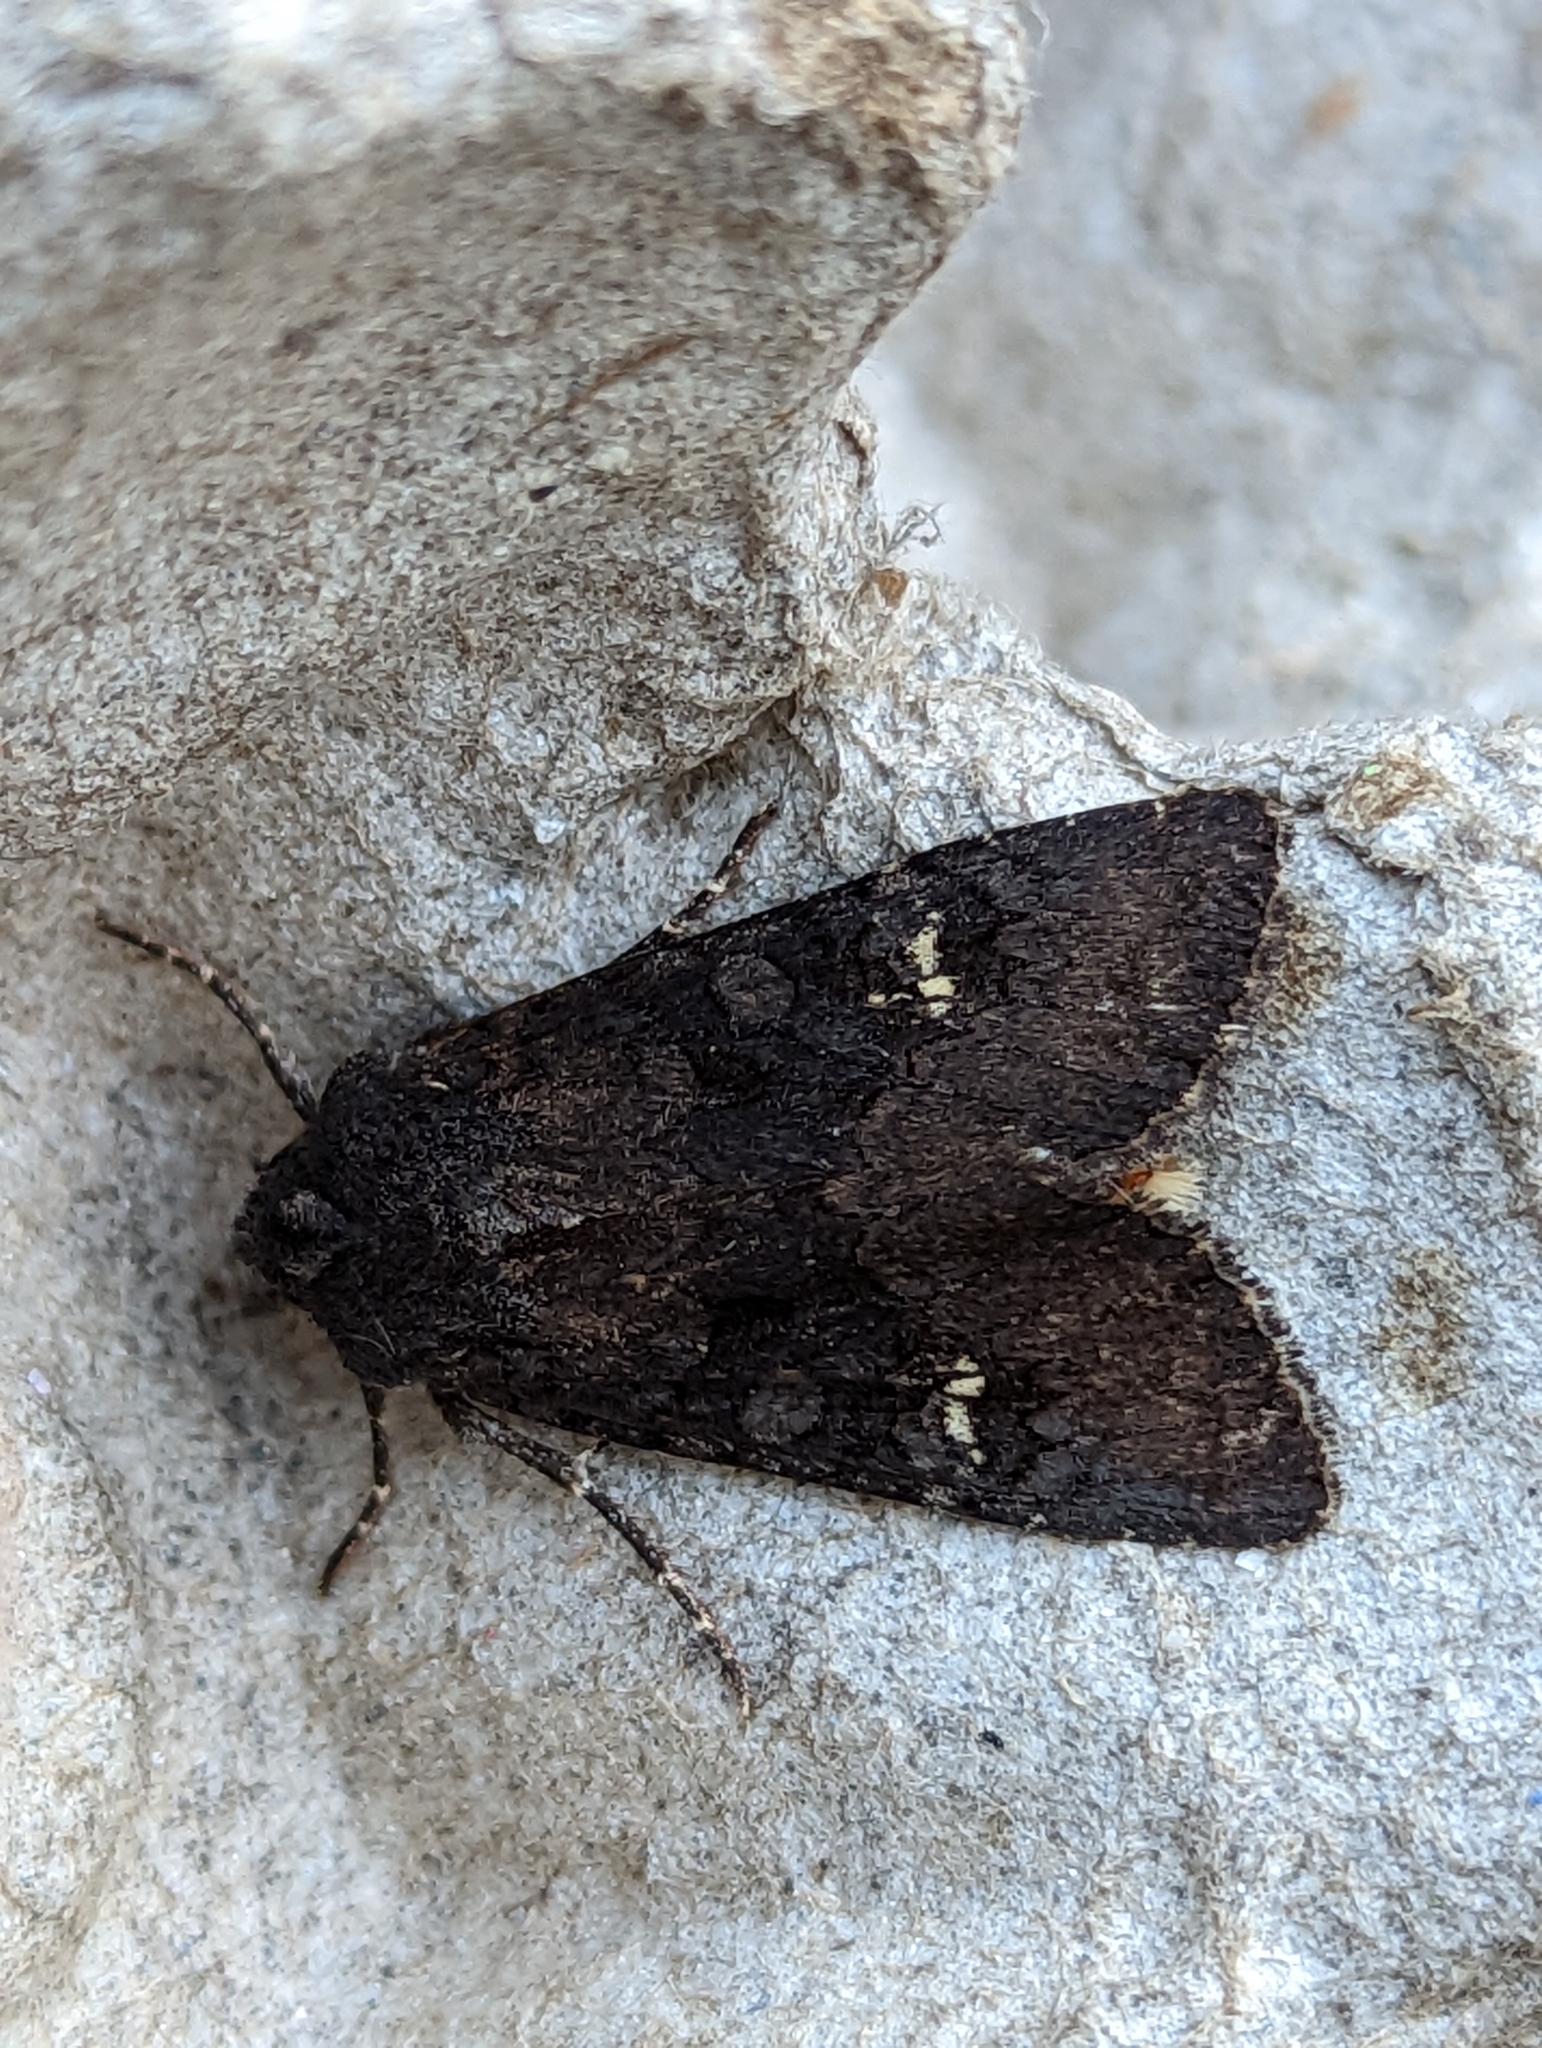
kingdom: Animalia
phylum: Arthropoda
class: Insecta
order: Lepidoptera
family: Noctuidae
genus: Aporophyla
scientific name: Aporophyla nigra
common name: Black rustic
